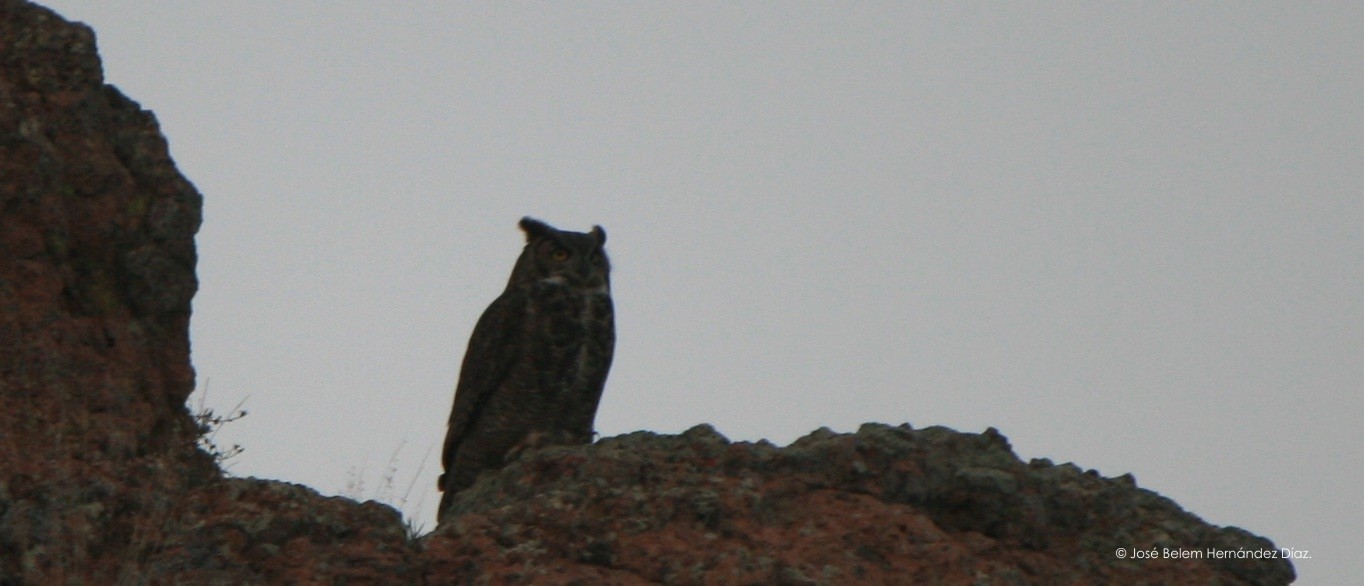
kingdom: Animalia
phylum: Chordata
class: Aves
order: Strigiformes
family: Strigidae
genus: Bubo
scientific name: Bubo virginianus
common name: Great horned owl
